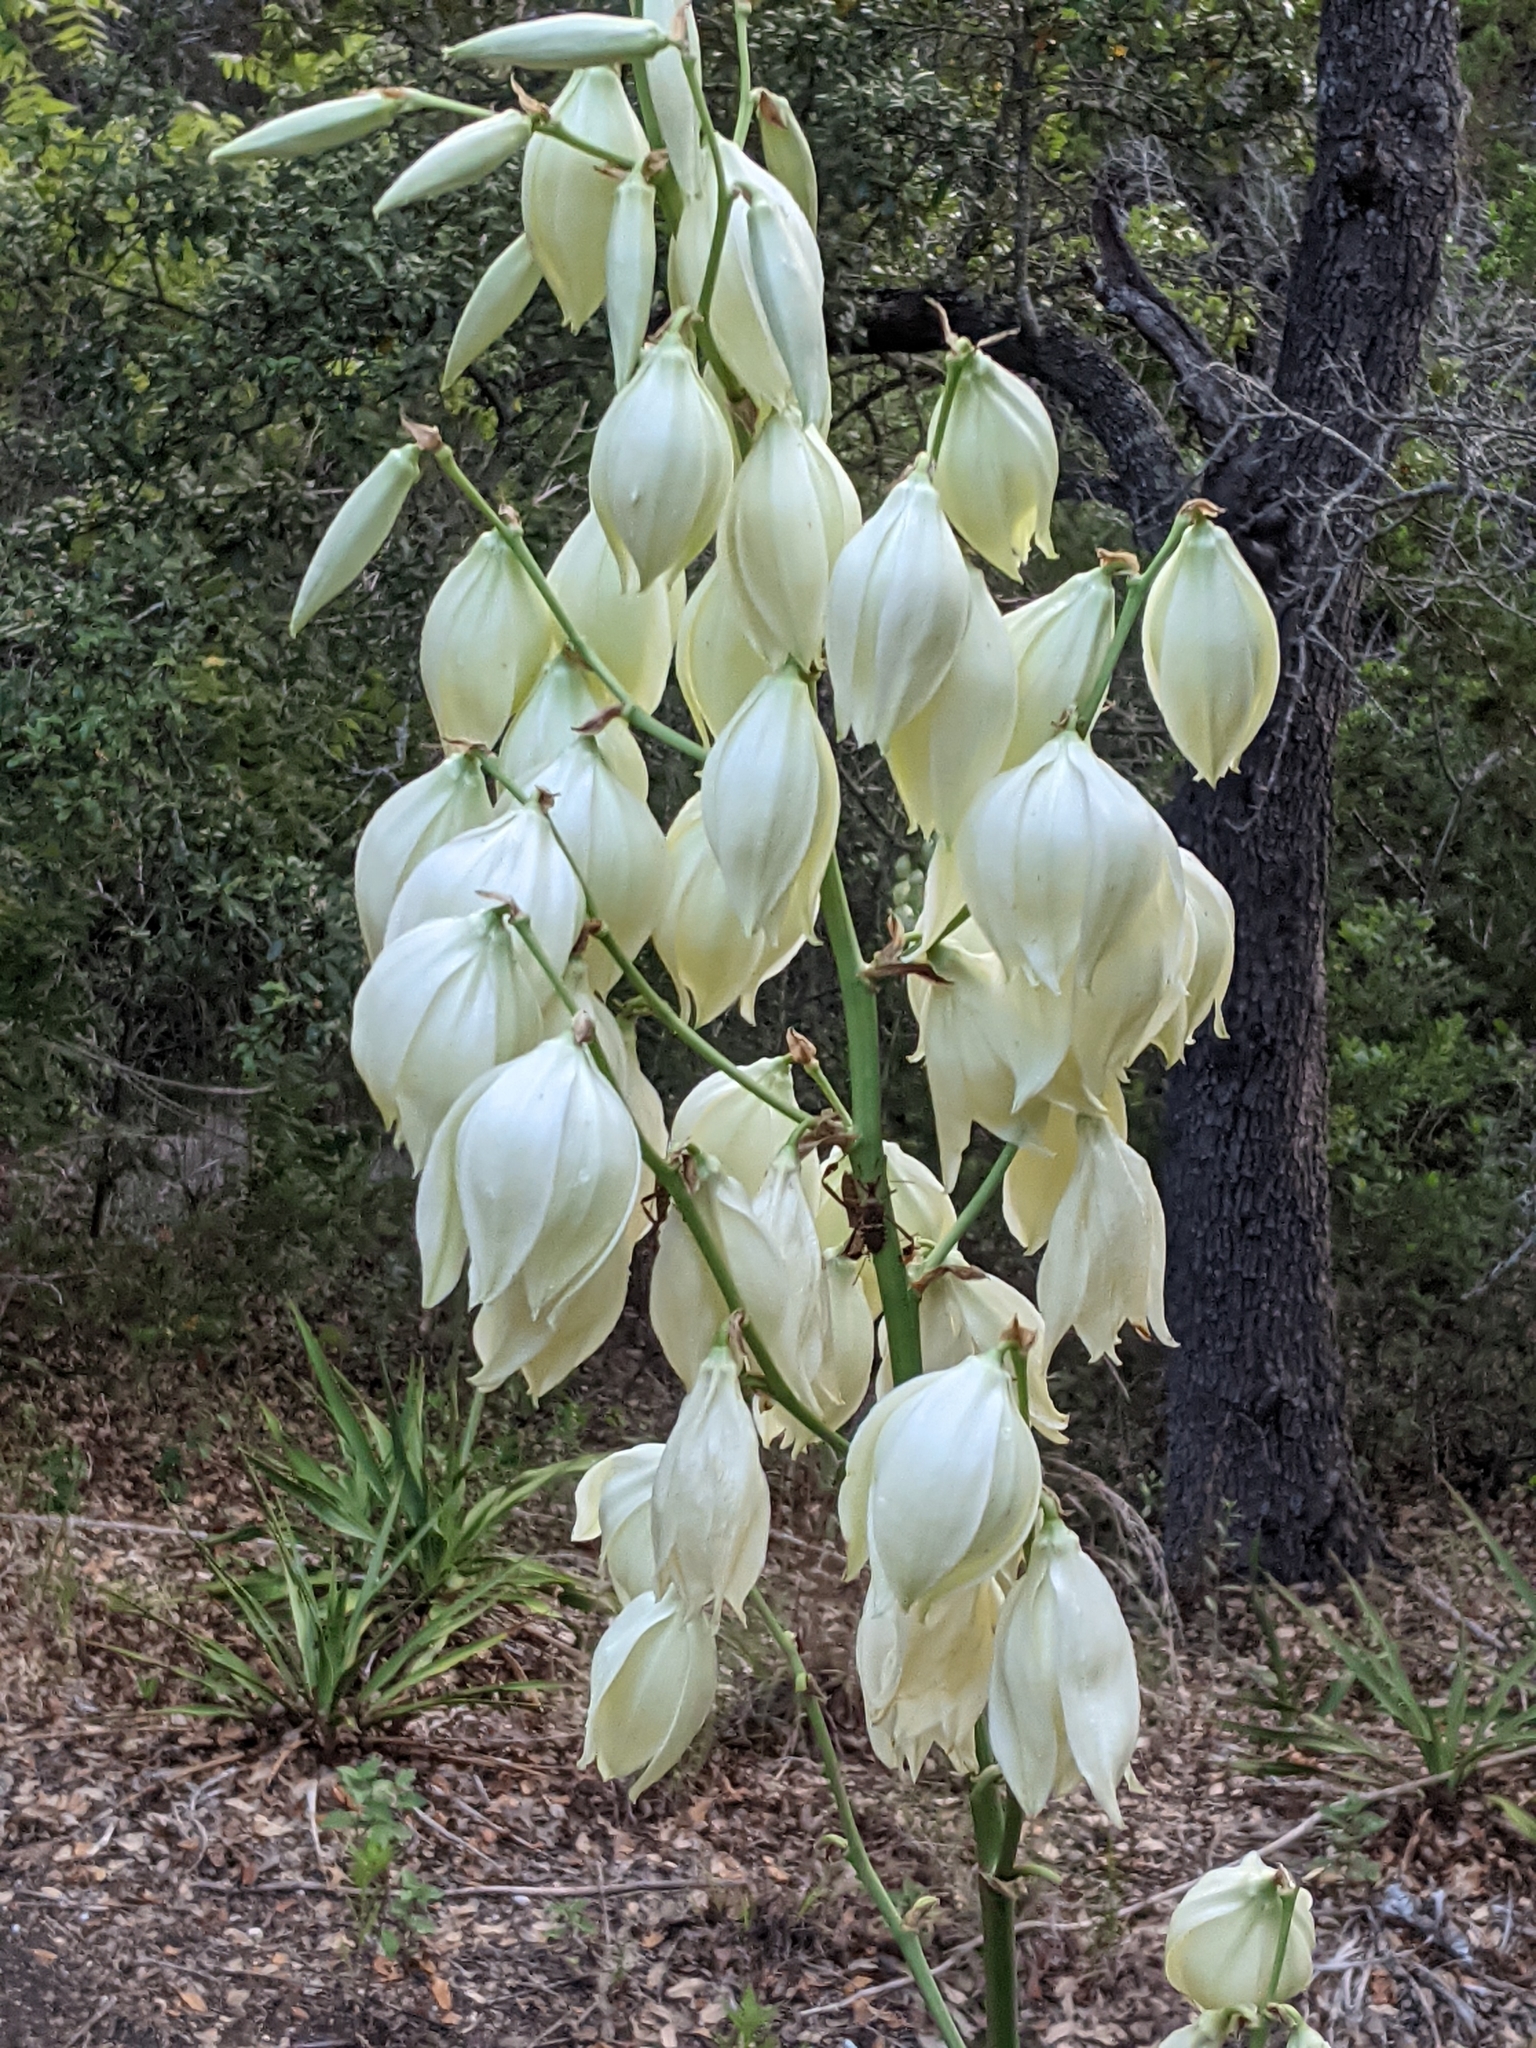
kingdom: Plantae
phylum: Tracheophyta
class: Liliopsida
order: Asparagales
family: Asparagaceae
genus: Yucca
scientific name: Yucca rupicola
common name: Twisted-leaf spanish-dagger
